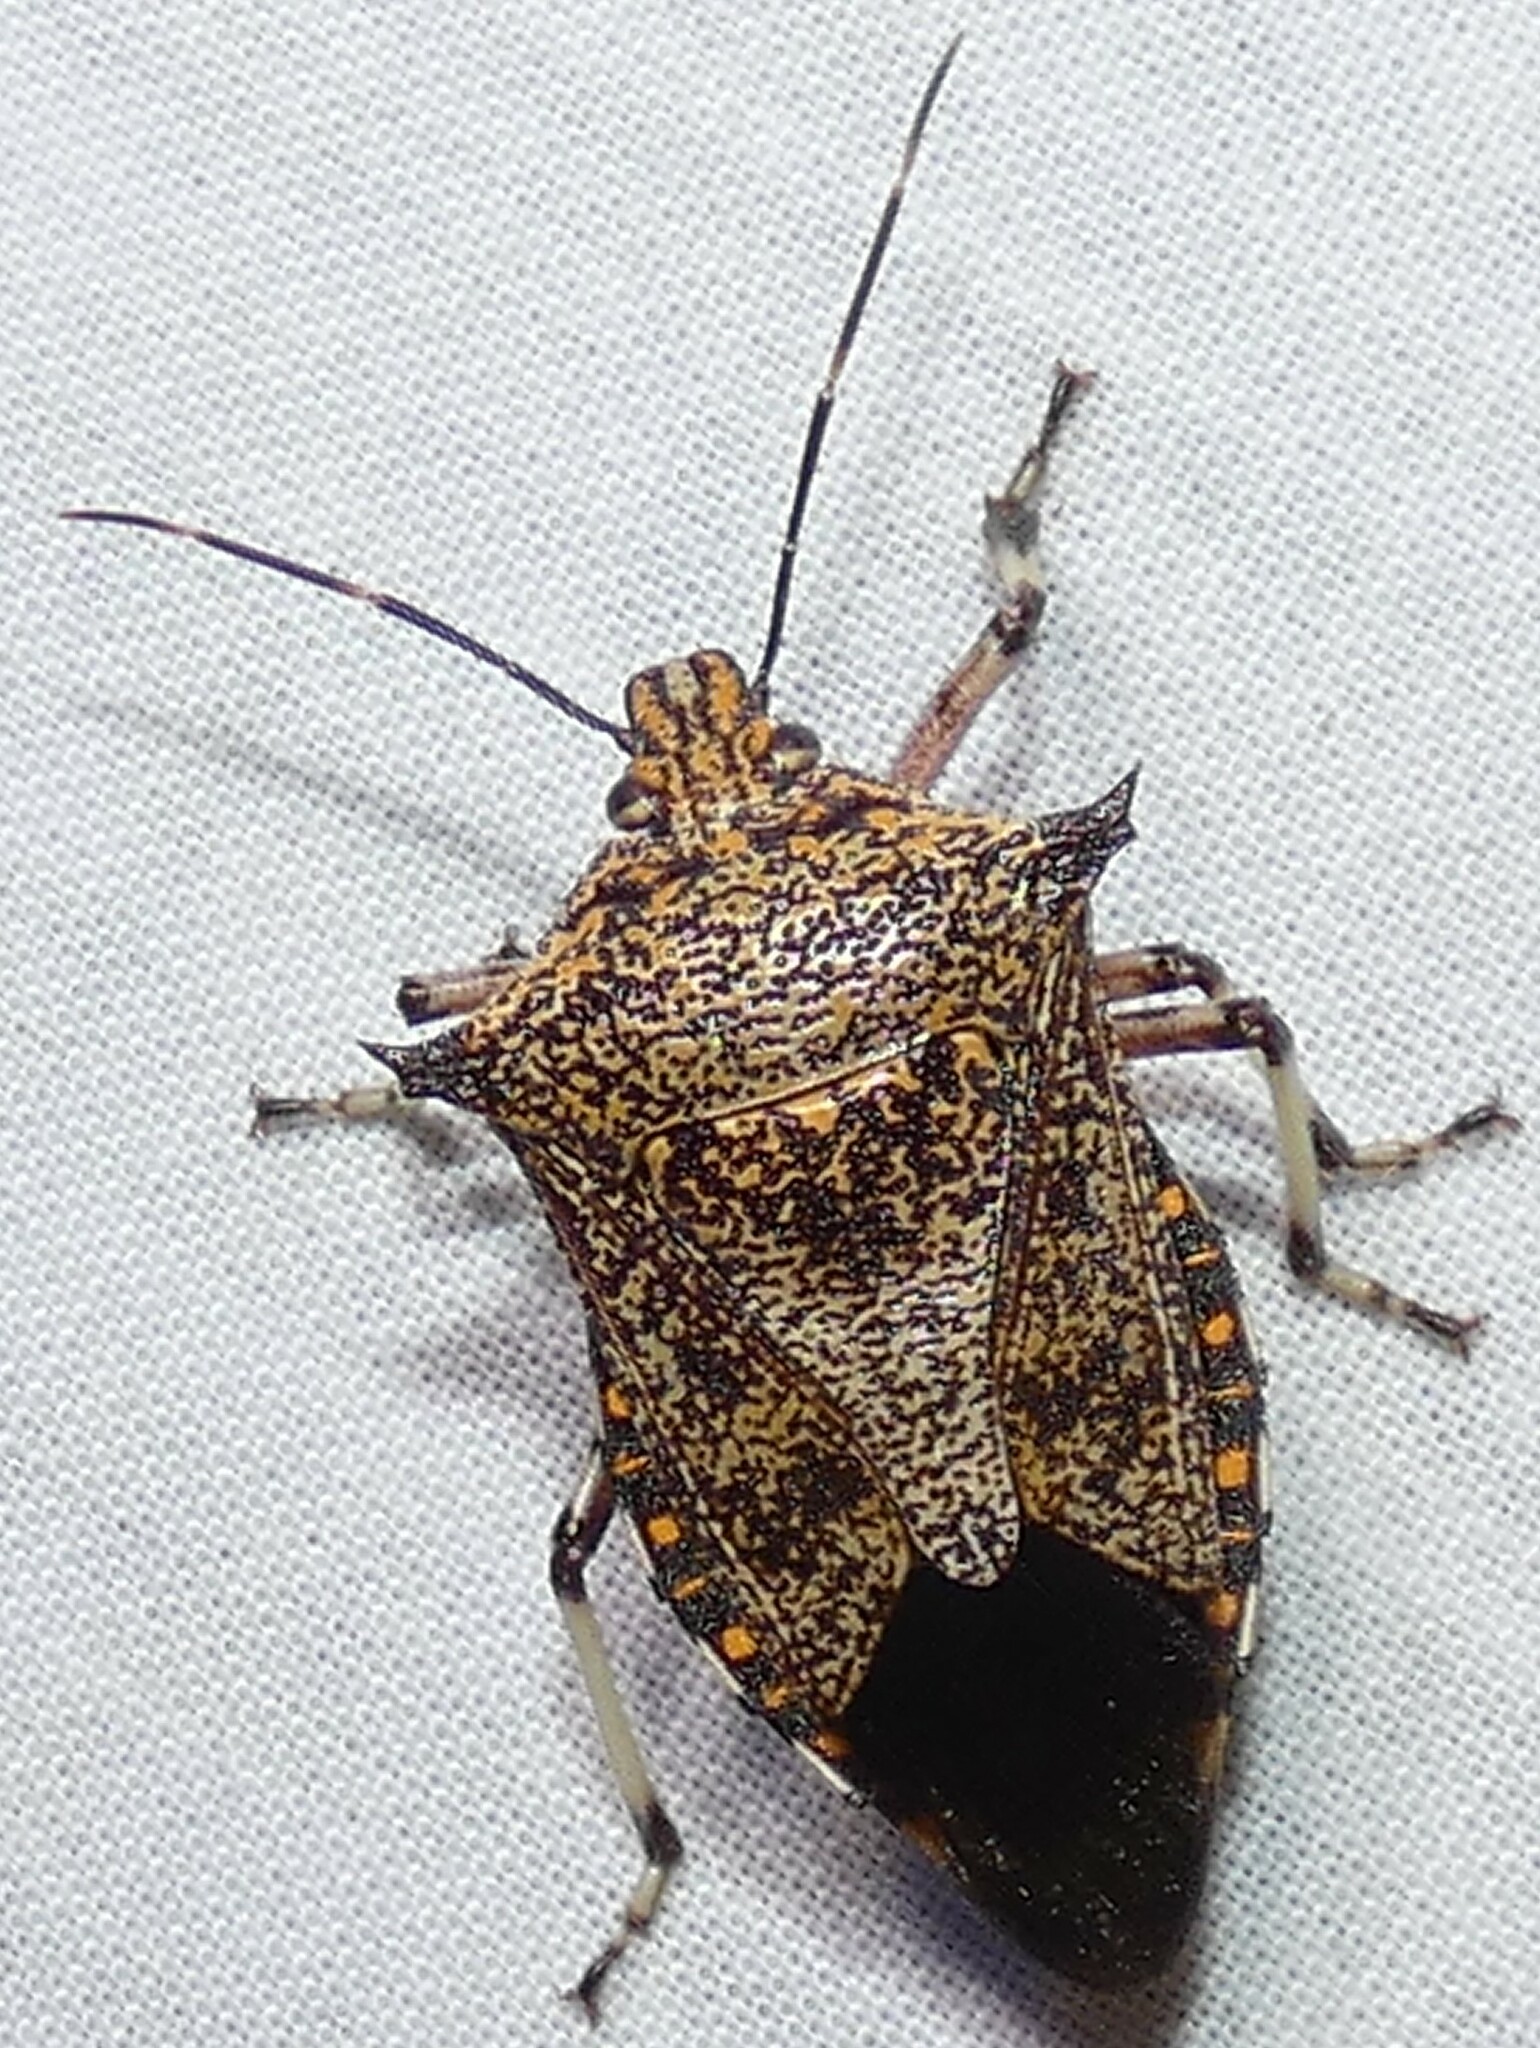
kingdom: Animalia
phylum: Arthropoda
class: Insecta
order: Hemiptera
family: Pentatomidae
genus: Alcaeorrhynchus
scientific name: Alcaeorrhynchus grandis
